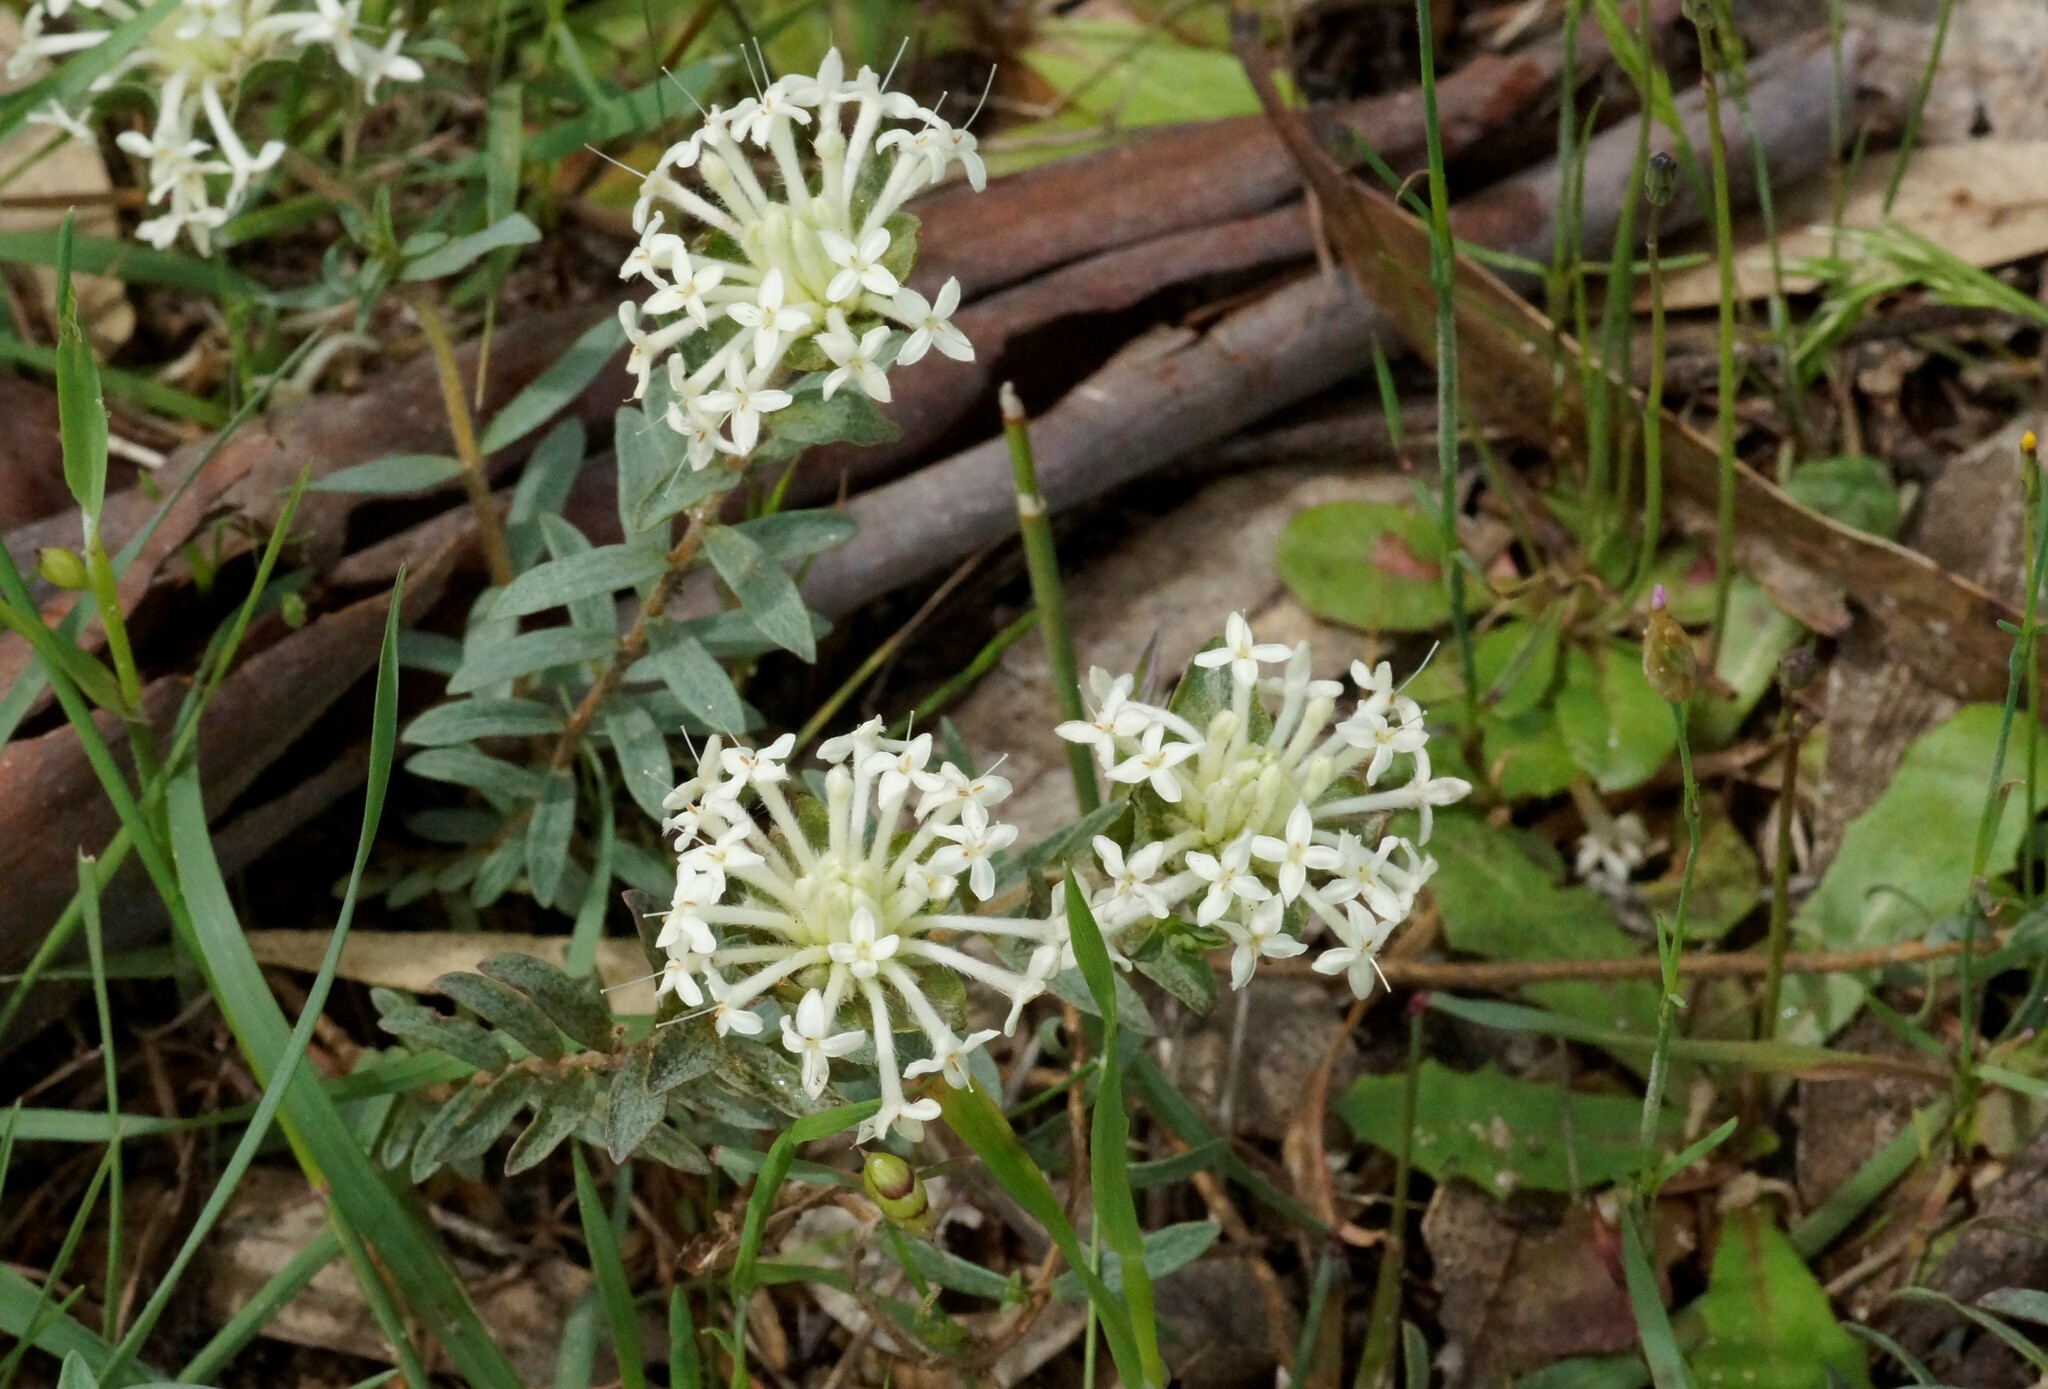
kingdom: Plantae
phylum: Tracheophyta
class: Magnoliopsida
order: Malvales
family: Thymelaeaceae
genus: Pimelea
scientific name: Pimelea humilis
